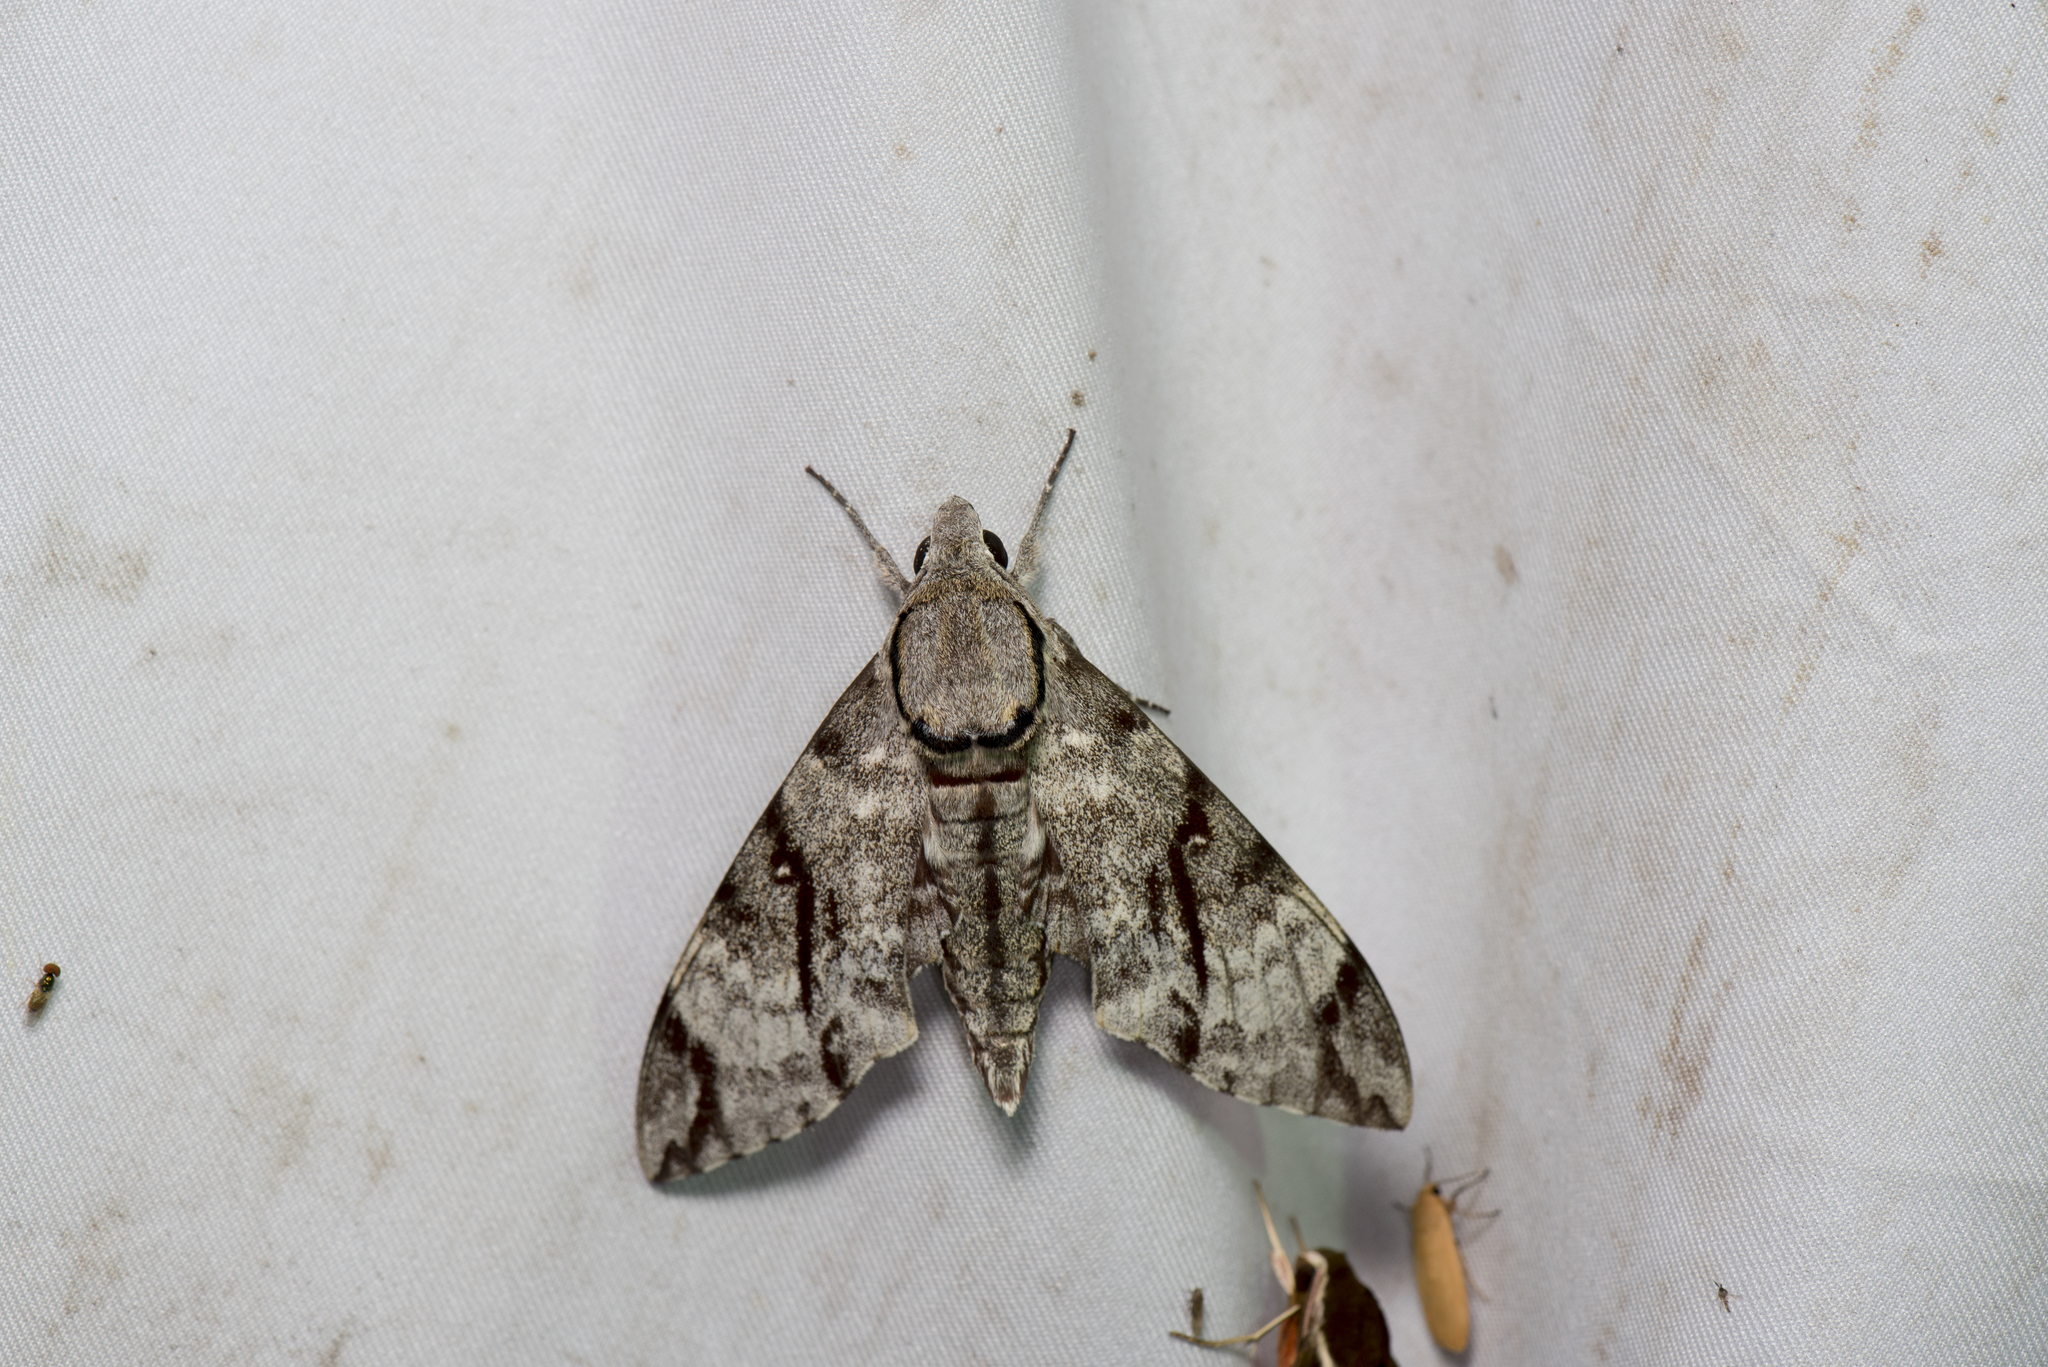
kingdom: Animalia
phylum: Arthropoda
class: Insecta
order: Lepidoptera
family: Sphingidae
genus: Notonagemia
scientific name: Notonagemia analis
